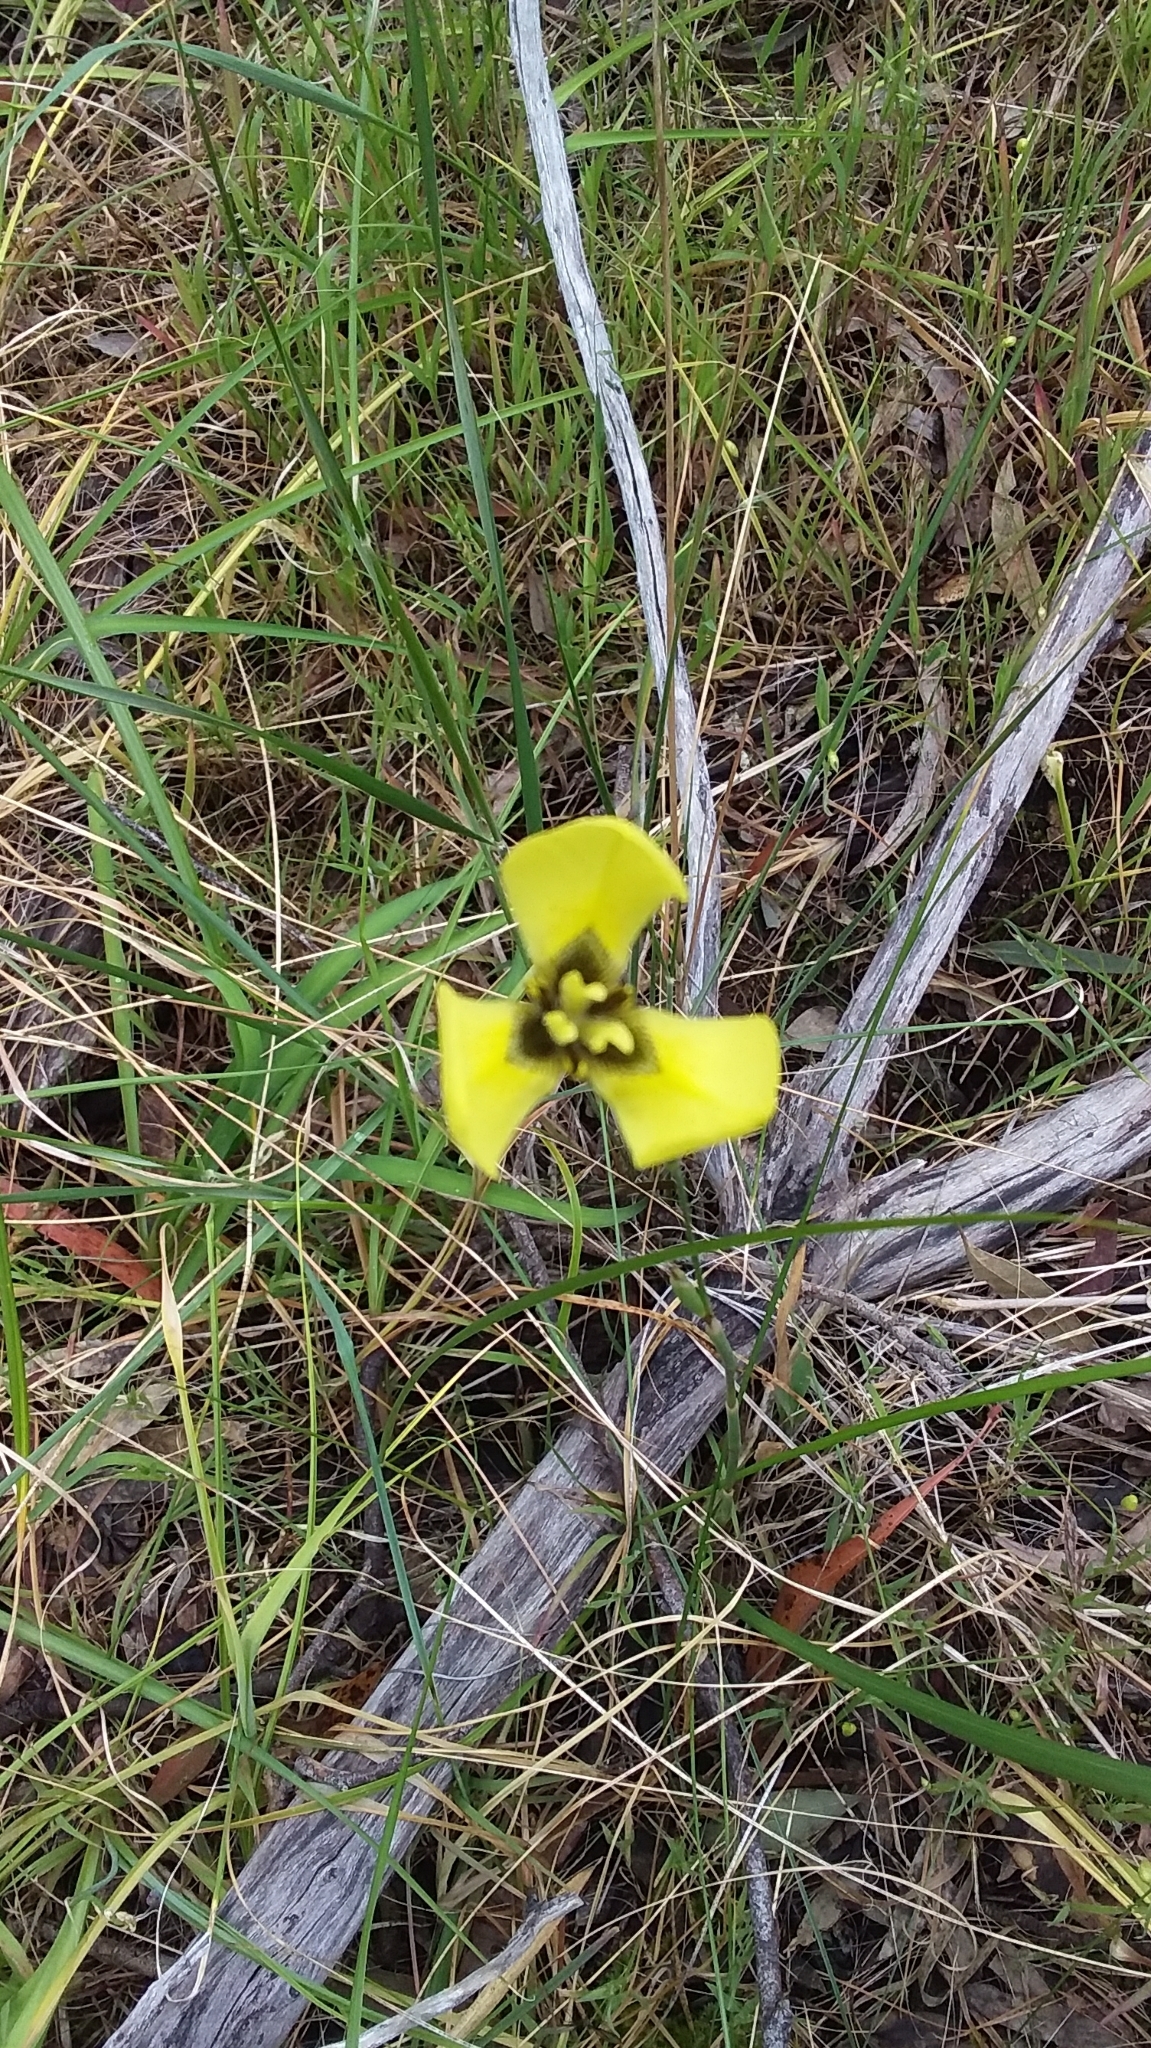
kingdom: Plantae
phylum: Tracheophyta
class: Liliopsida
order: Asparagales
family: Iridaceae
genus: Moraea
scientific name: Moraea bellendenii
